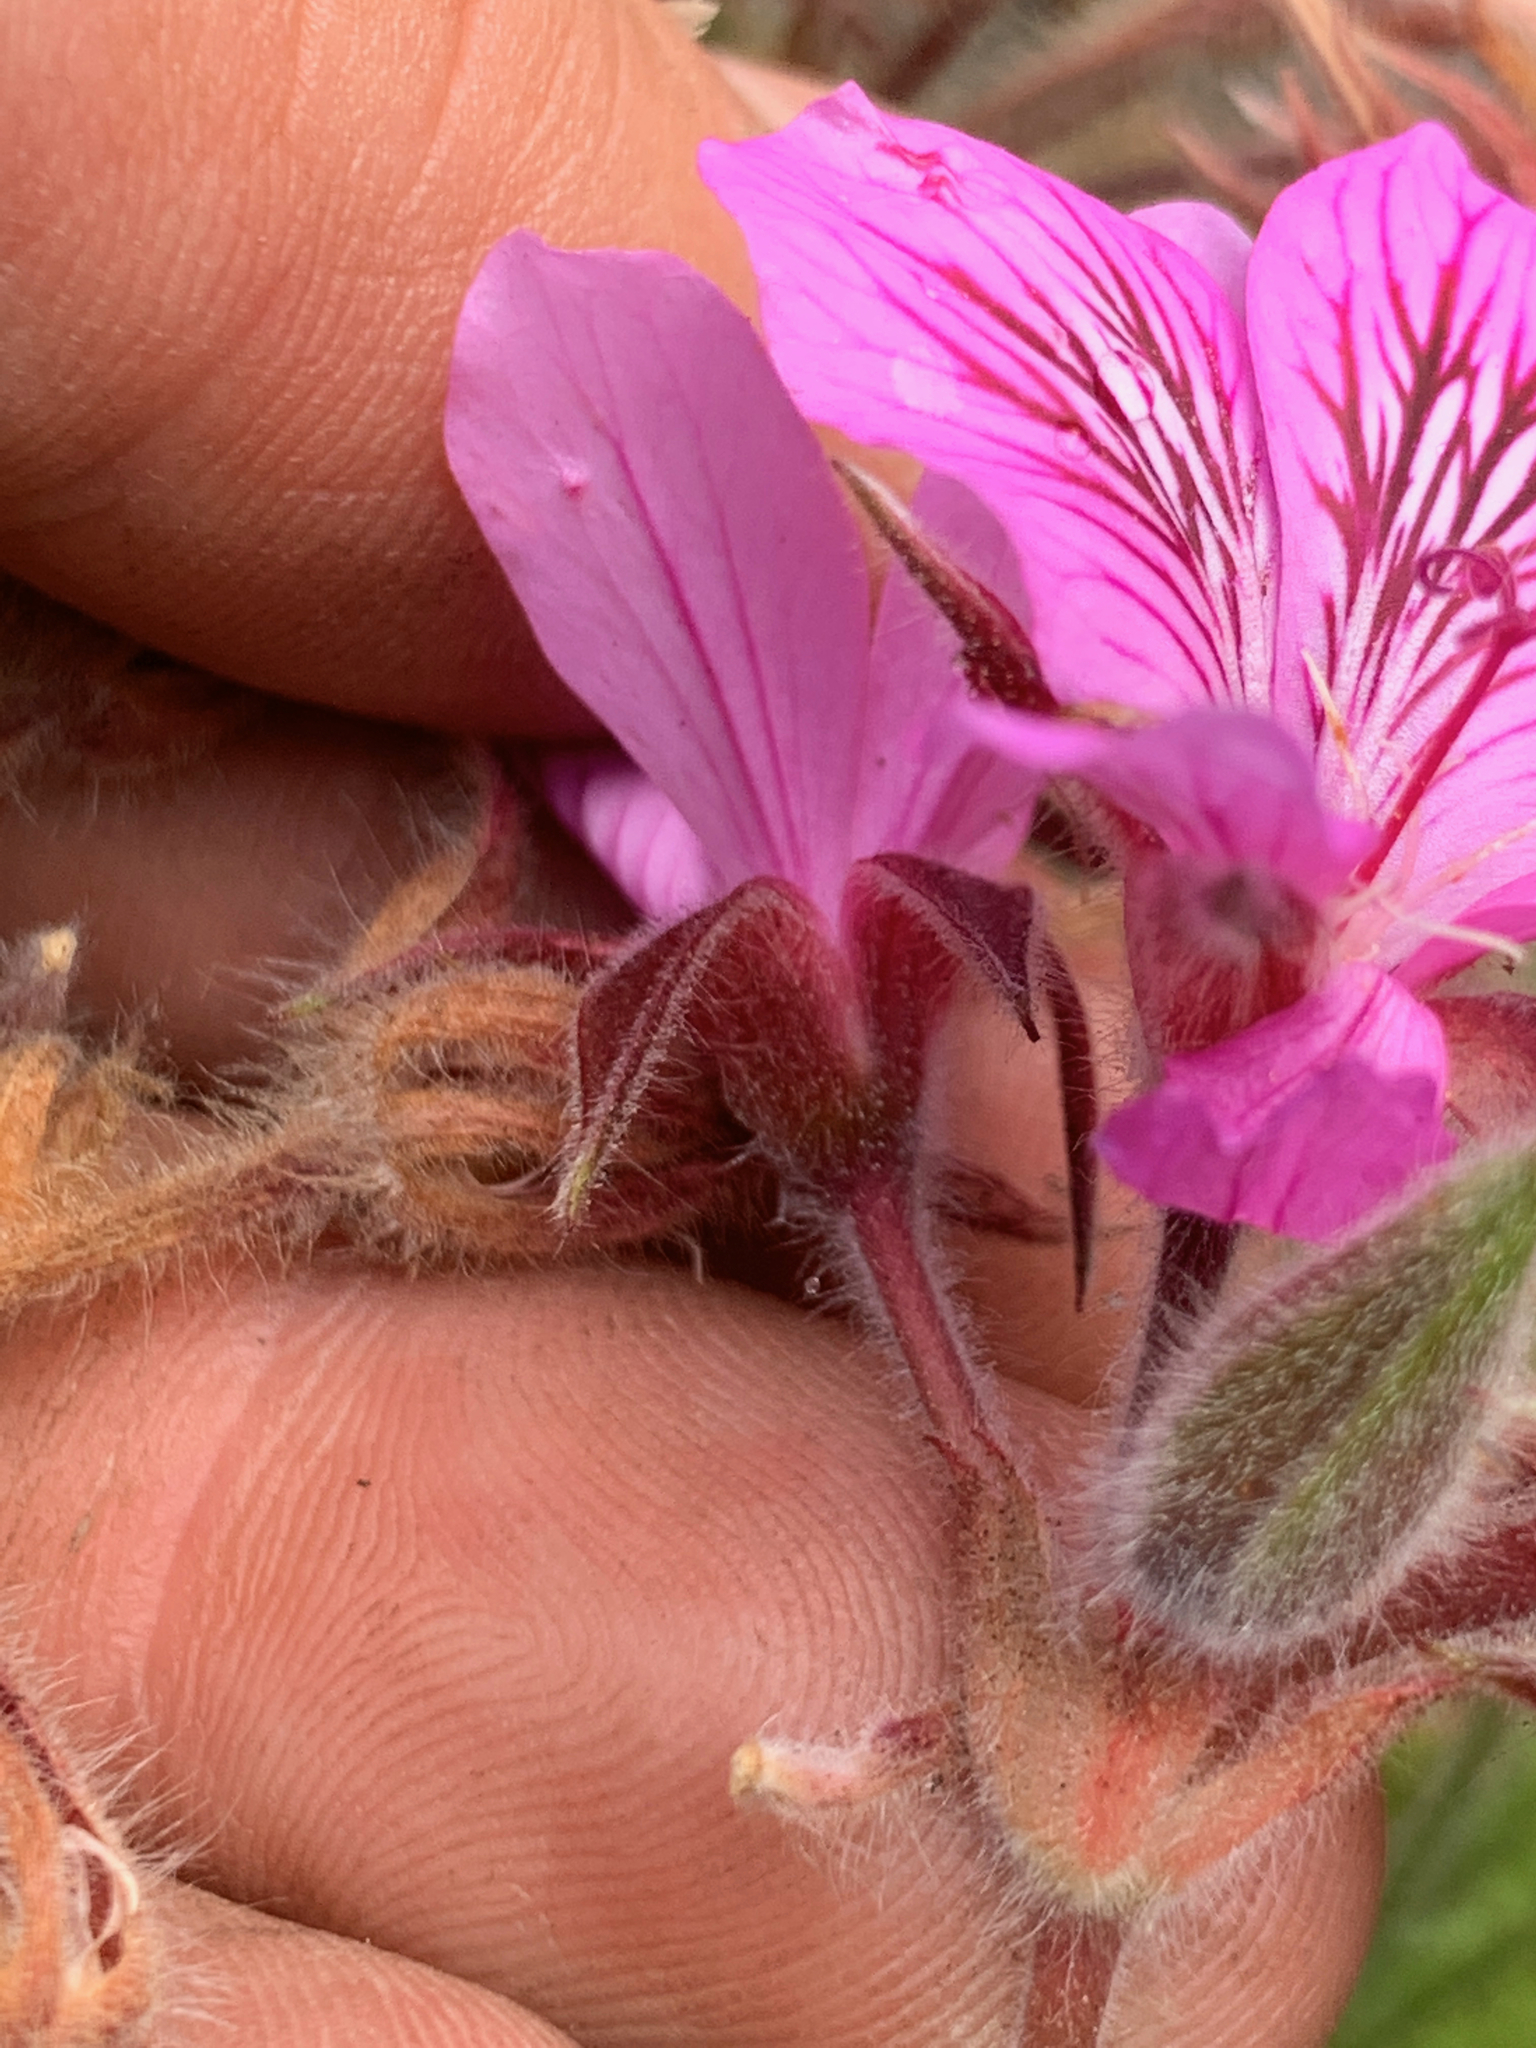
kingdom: Plantae
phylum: Tracheophyta
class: Magnoliopsida
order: Geraniales
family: Geraniaceae
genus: Pelargonium
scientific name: Pelargonium cucullatum
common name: Tree pelargonium
